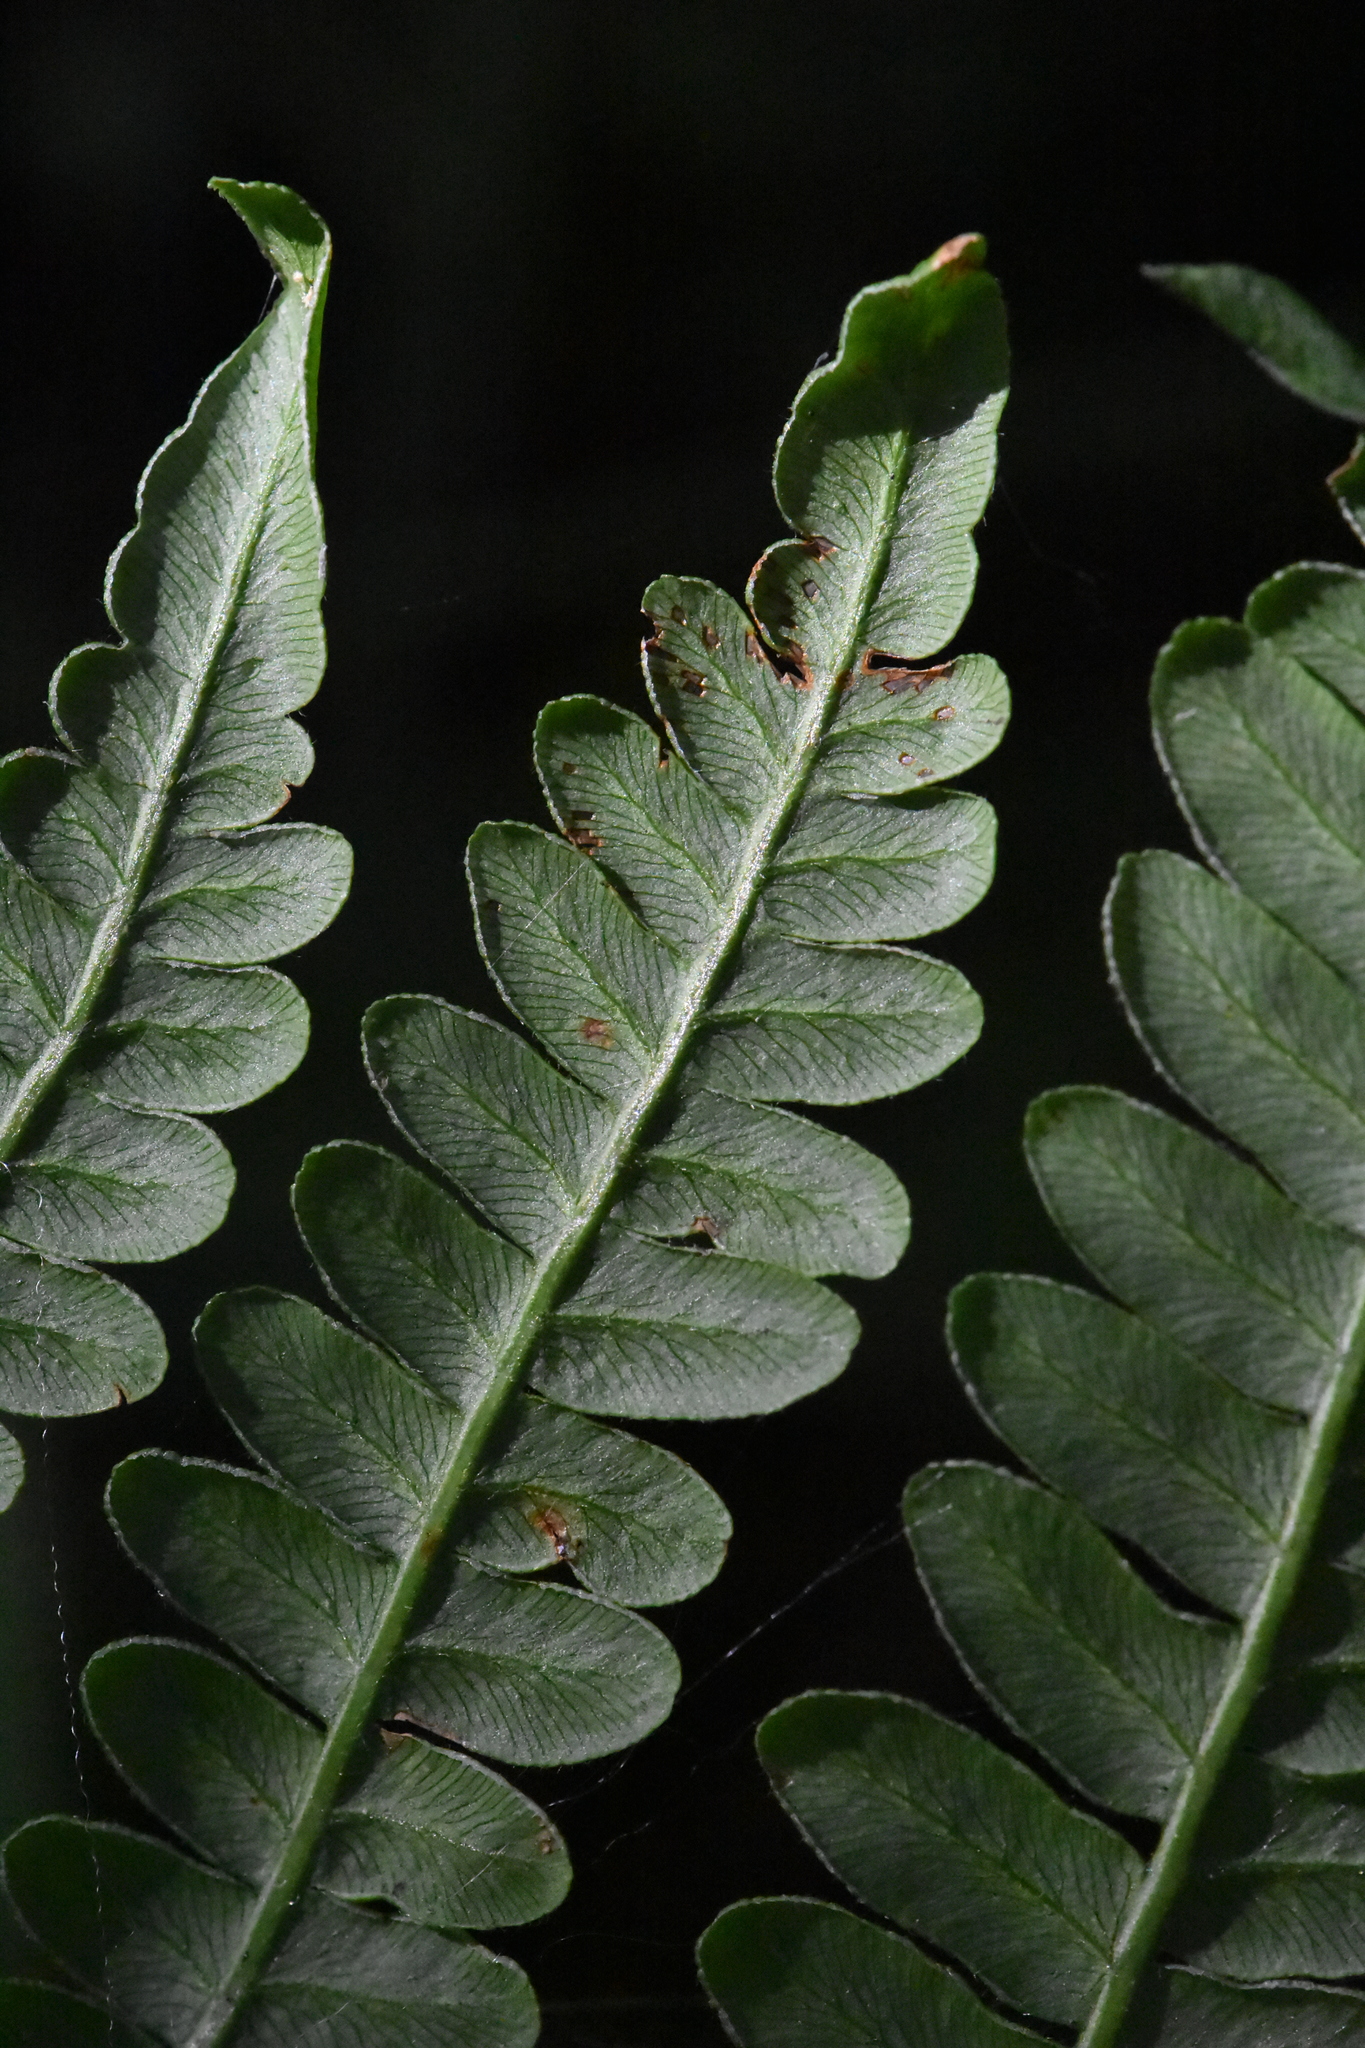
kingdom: Plantae
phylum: Tracheophyta
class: Polypodiopsida
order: Polypodiales
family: Dennstaedtiaceae
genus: Pteridium
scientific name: Pteridium aquilinum
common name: Bracken
